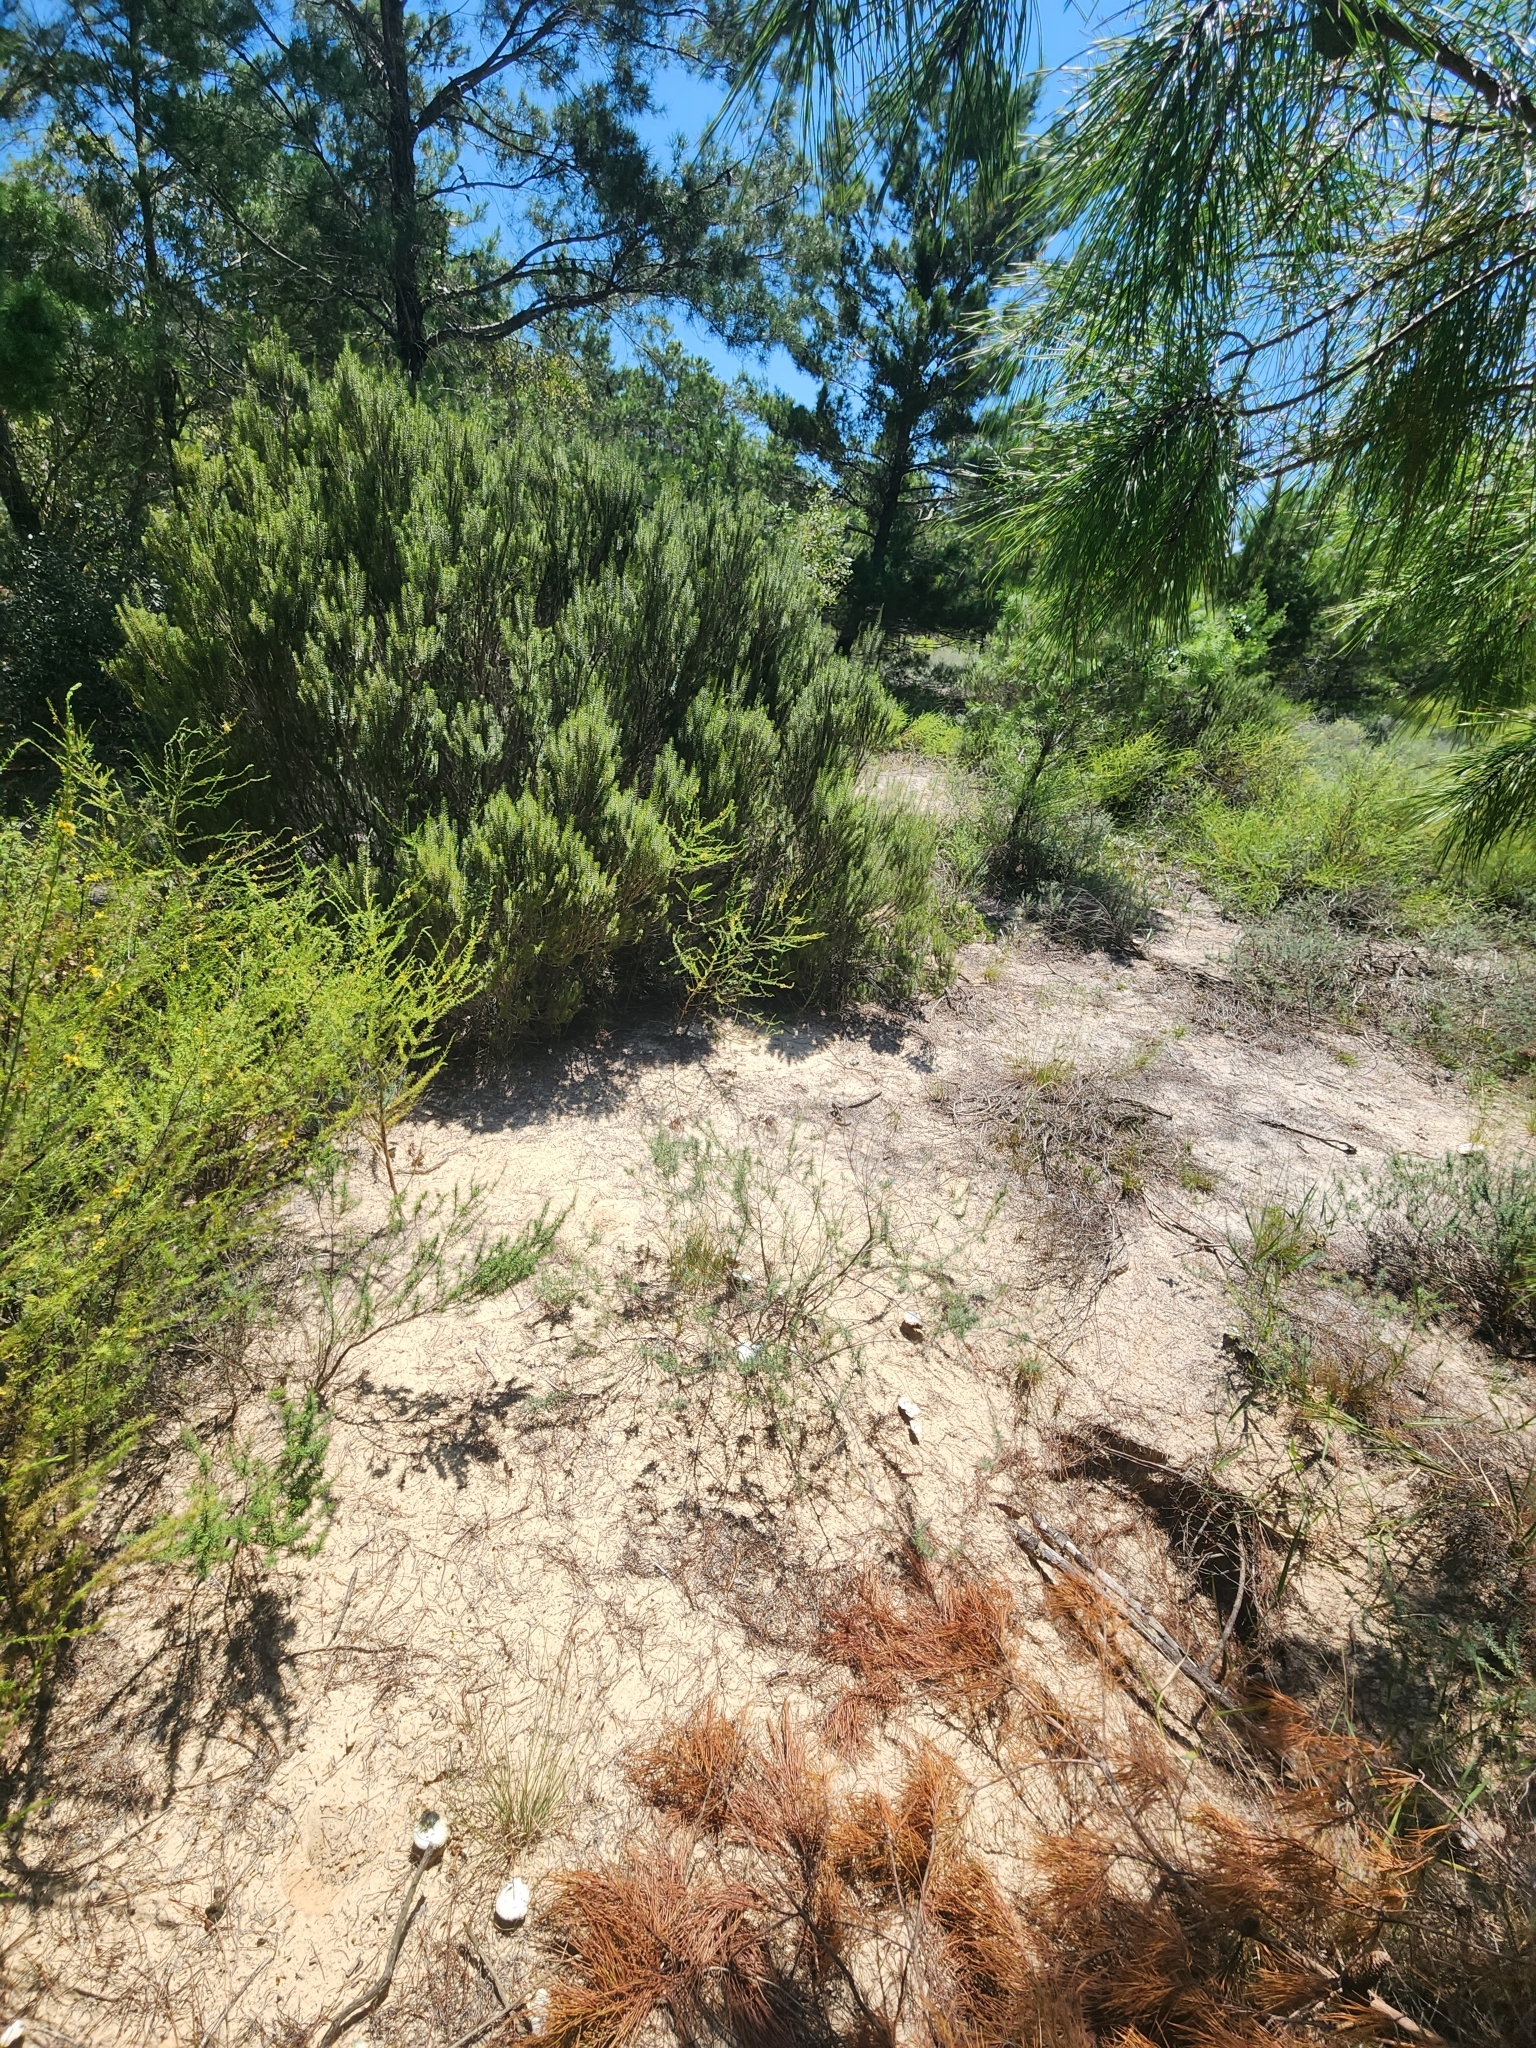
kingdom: Plantae
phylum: Tracheophyta
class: Magnoliopsida
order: Gentianales
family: Apocynaceae
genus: Asclepias
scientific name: Asclepias tomentosa
